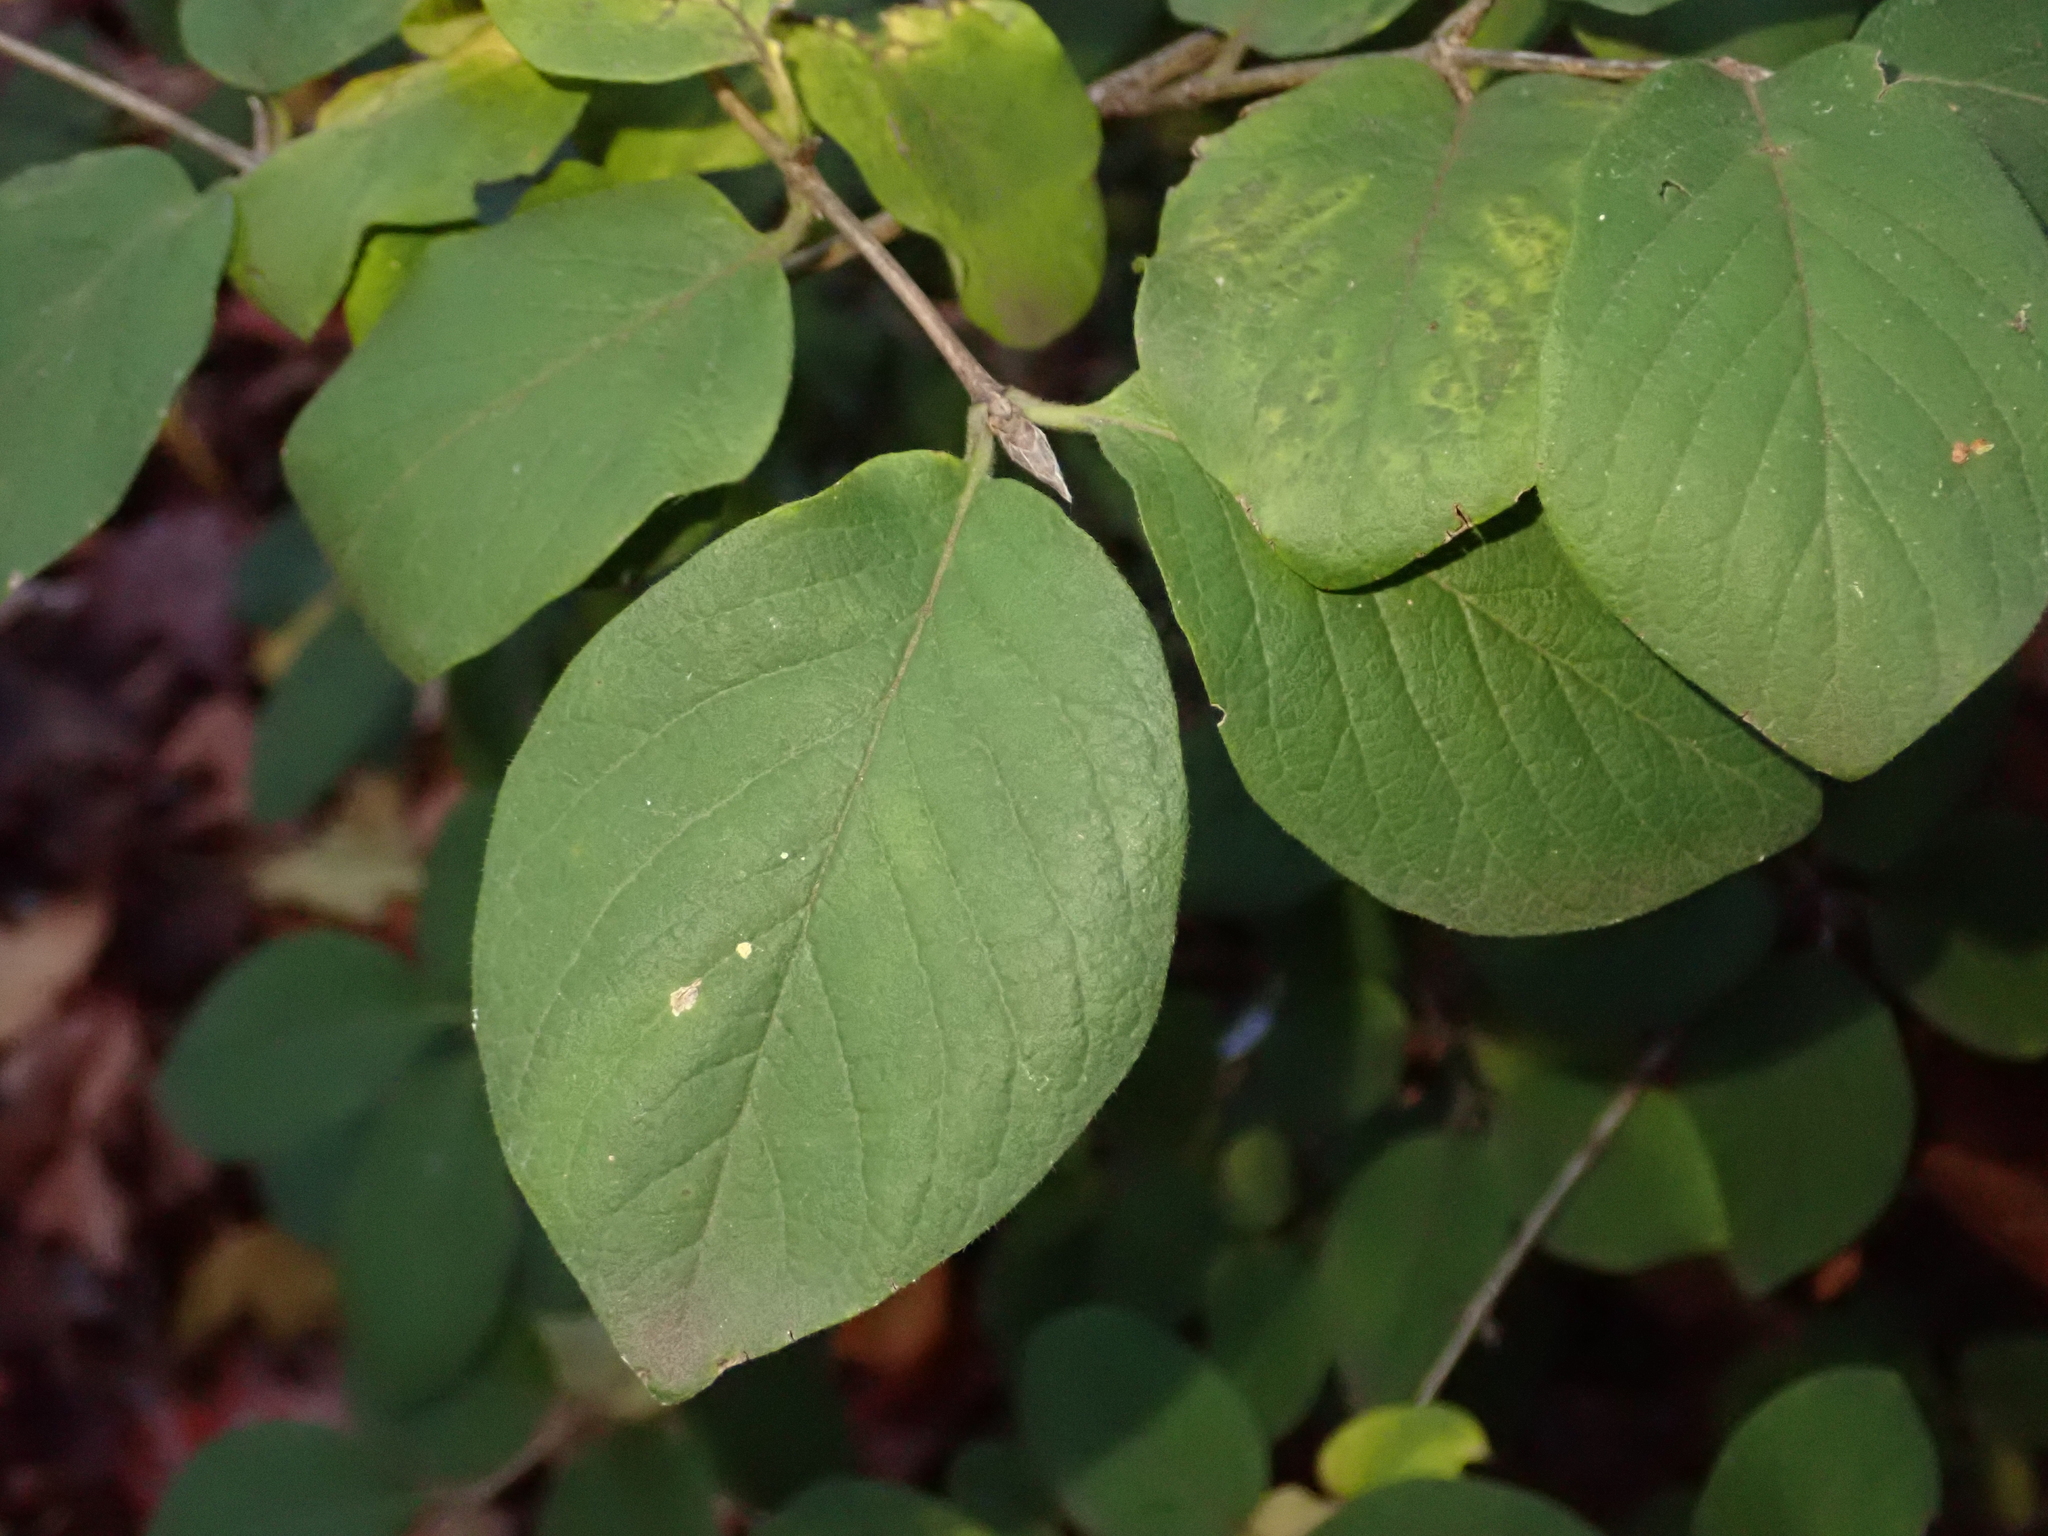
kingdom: Plantae
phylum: Tracheophyta
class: Magnoliopsida
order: Dipsacales
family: Caprifoliaceae
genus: Lonicera
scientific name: Lonicera xylosteum
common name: Fly honeysuckle
